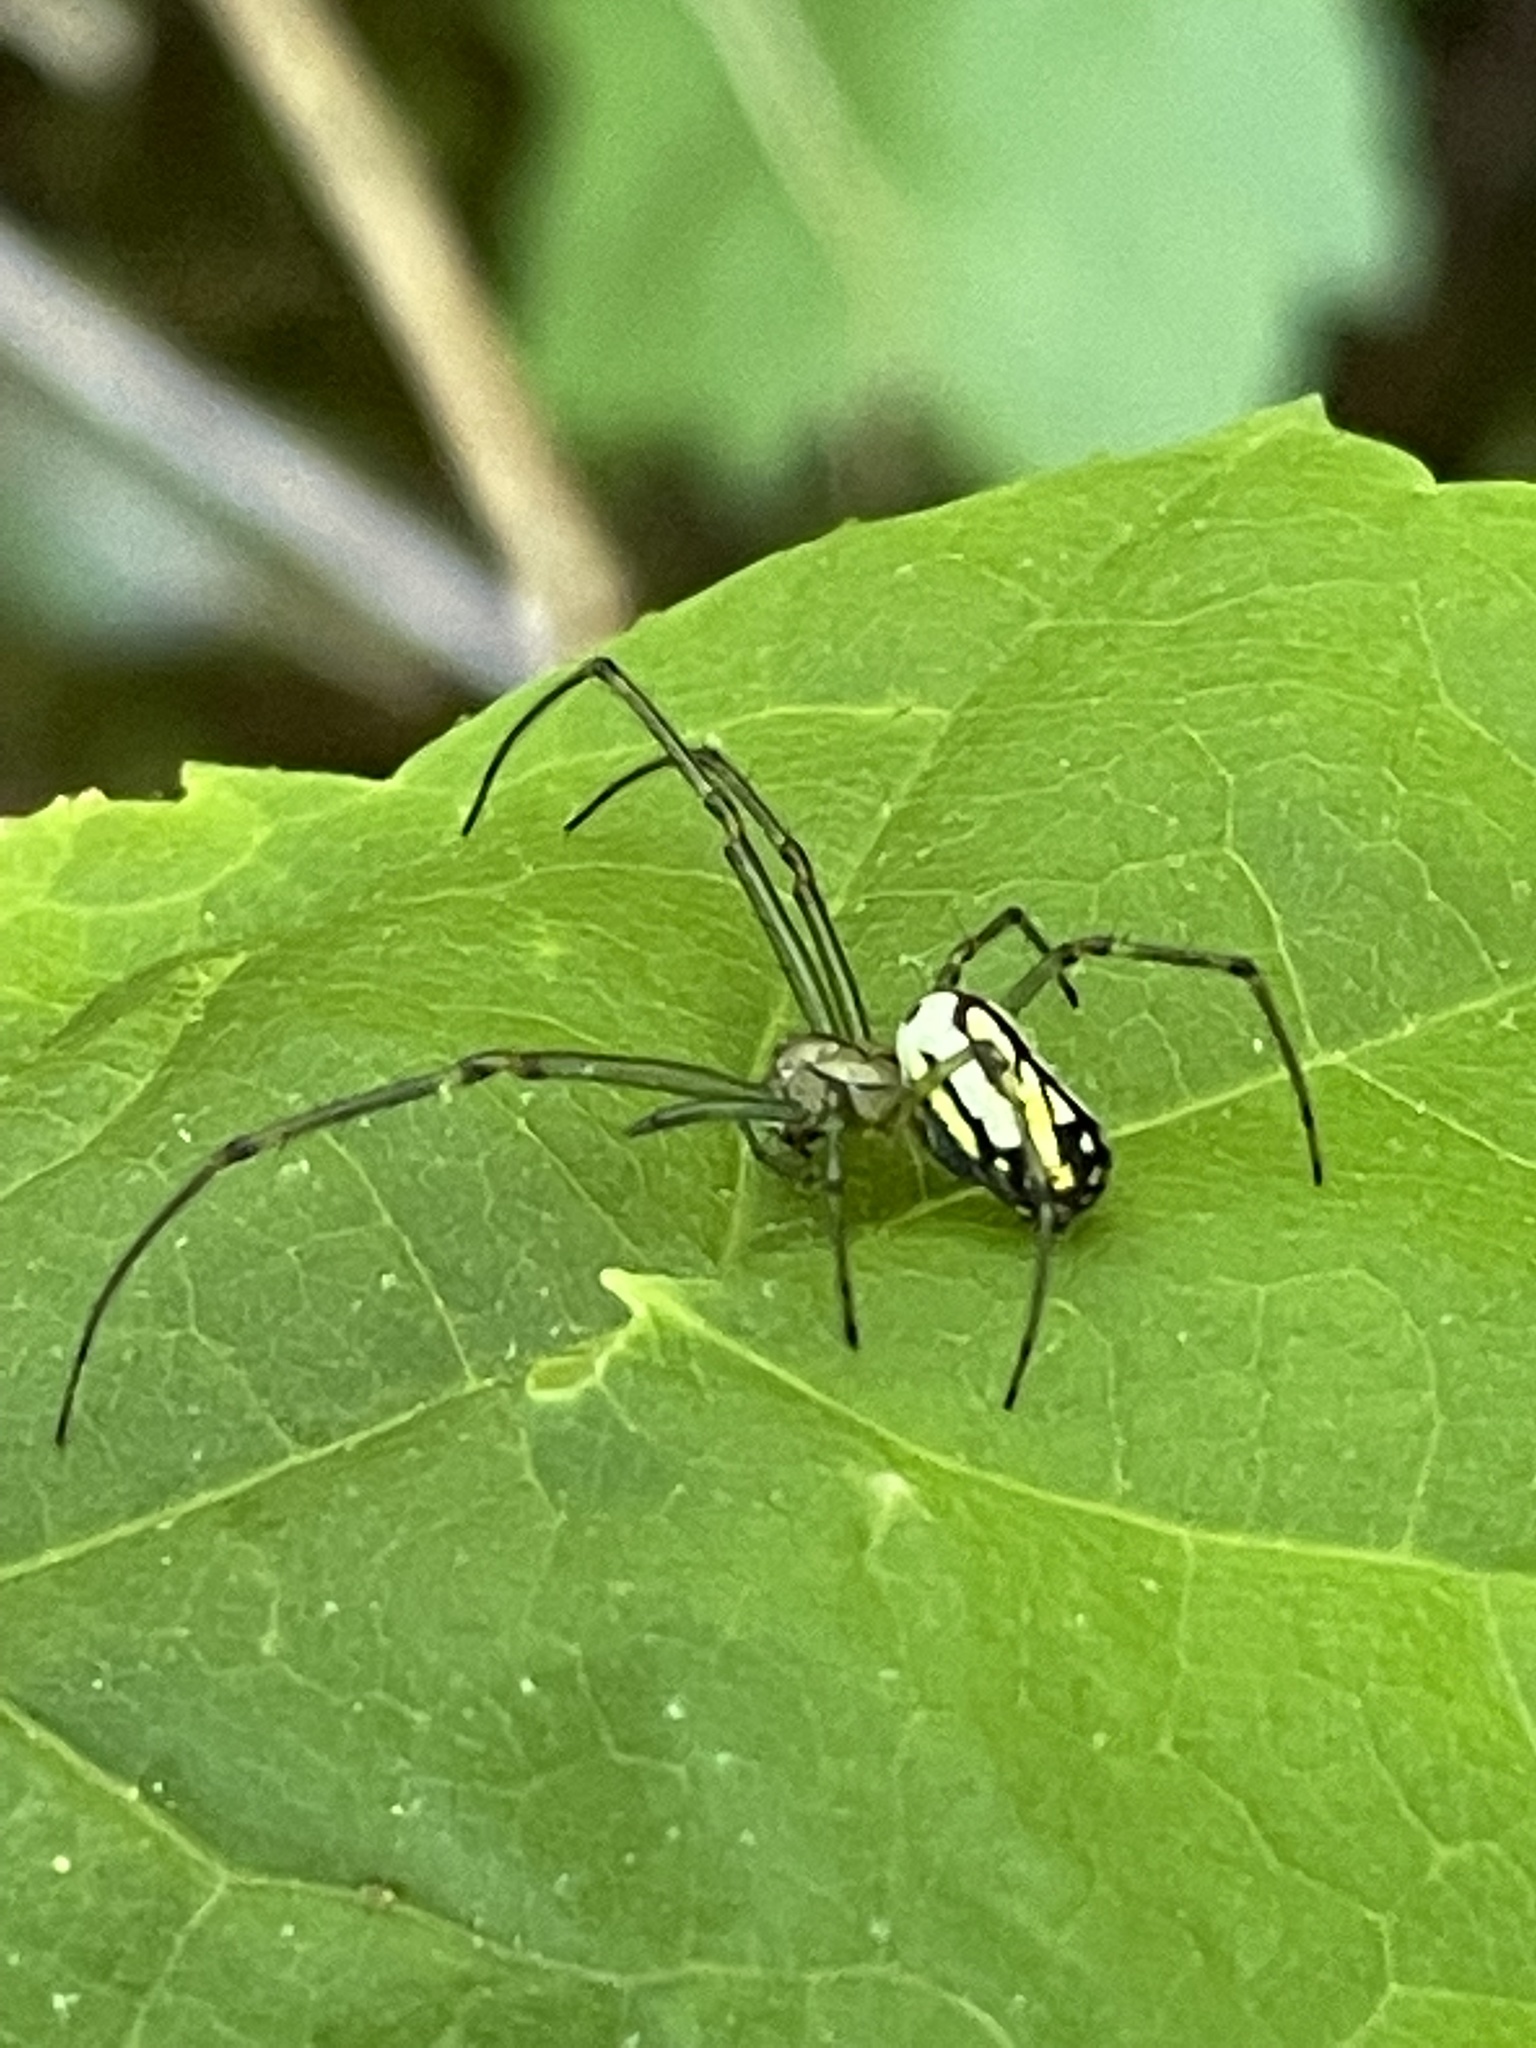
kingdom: Animalia
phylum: Arthropoda
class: Arachnida
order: Araneae
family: Tetragnathidae
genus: Leucauge
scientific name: Leucauge venusta
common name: Longjawed orb weavers
